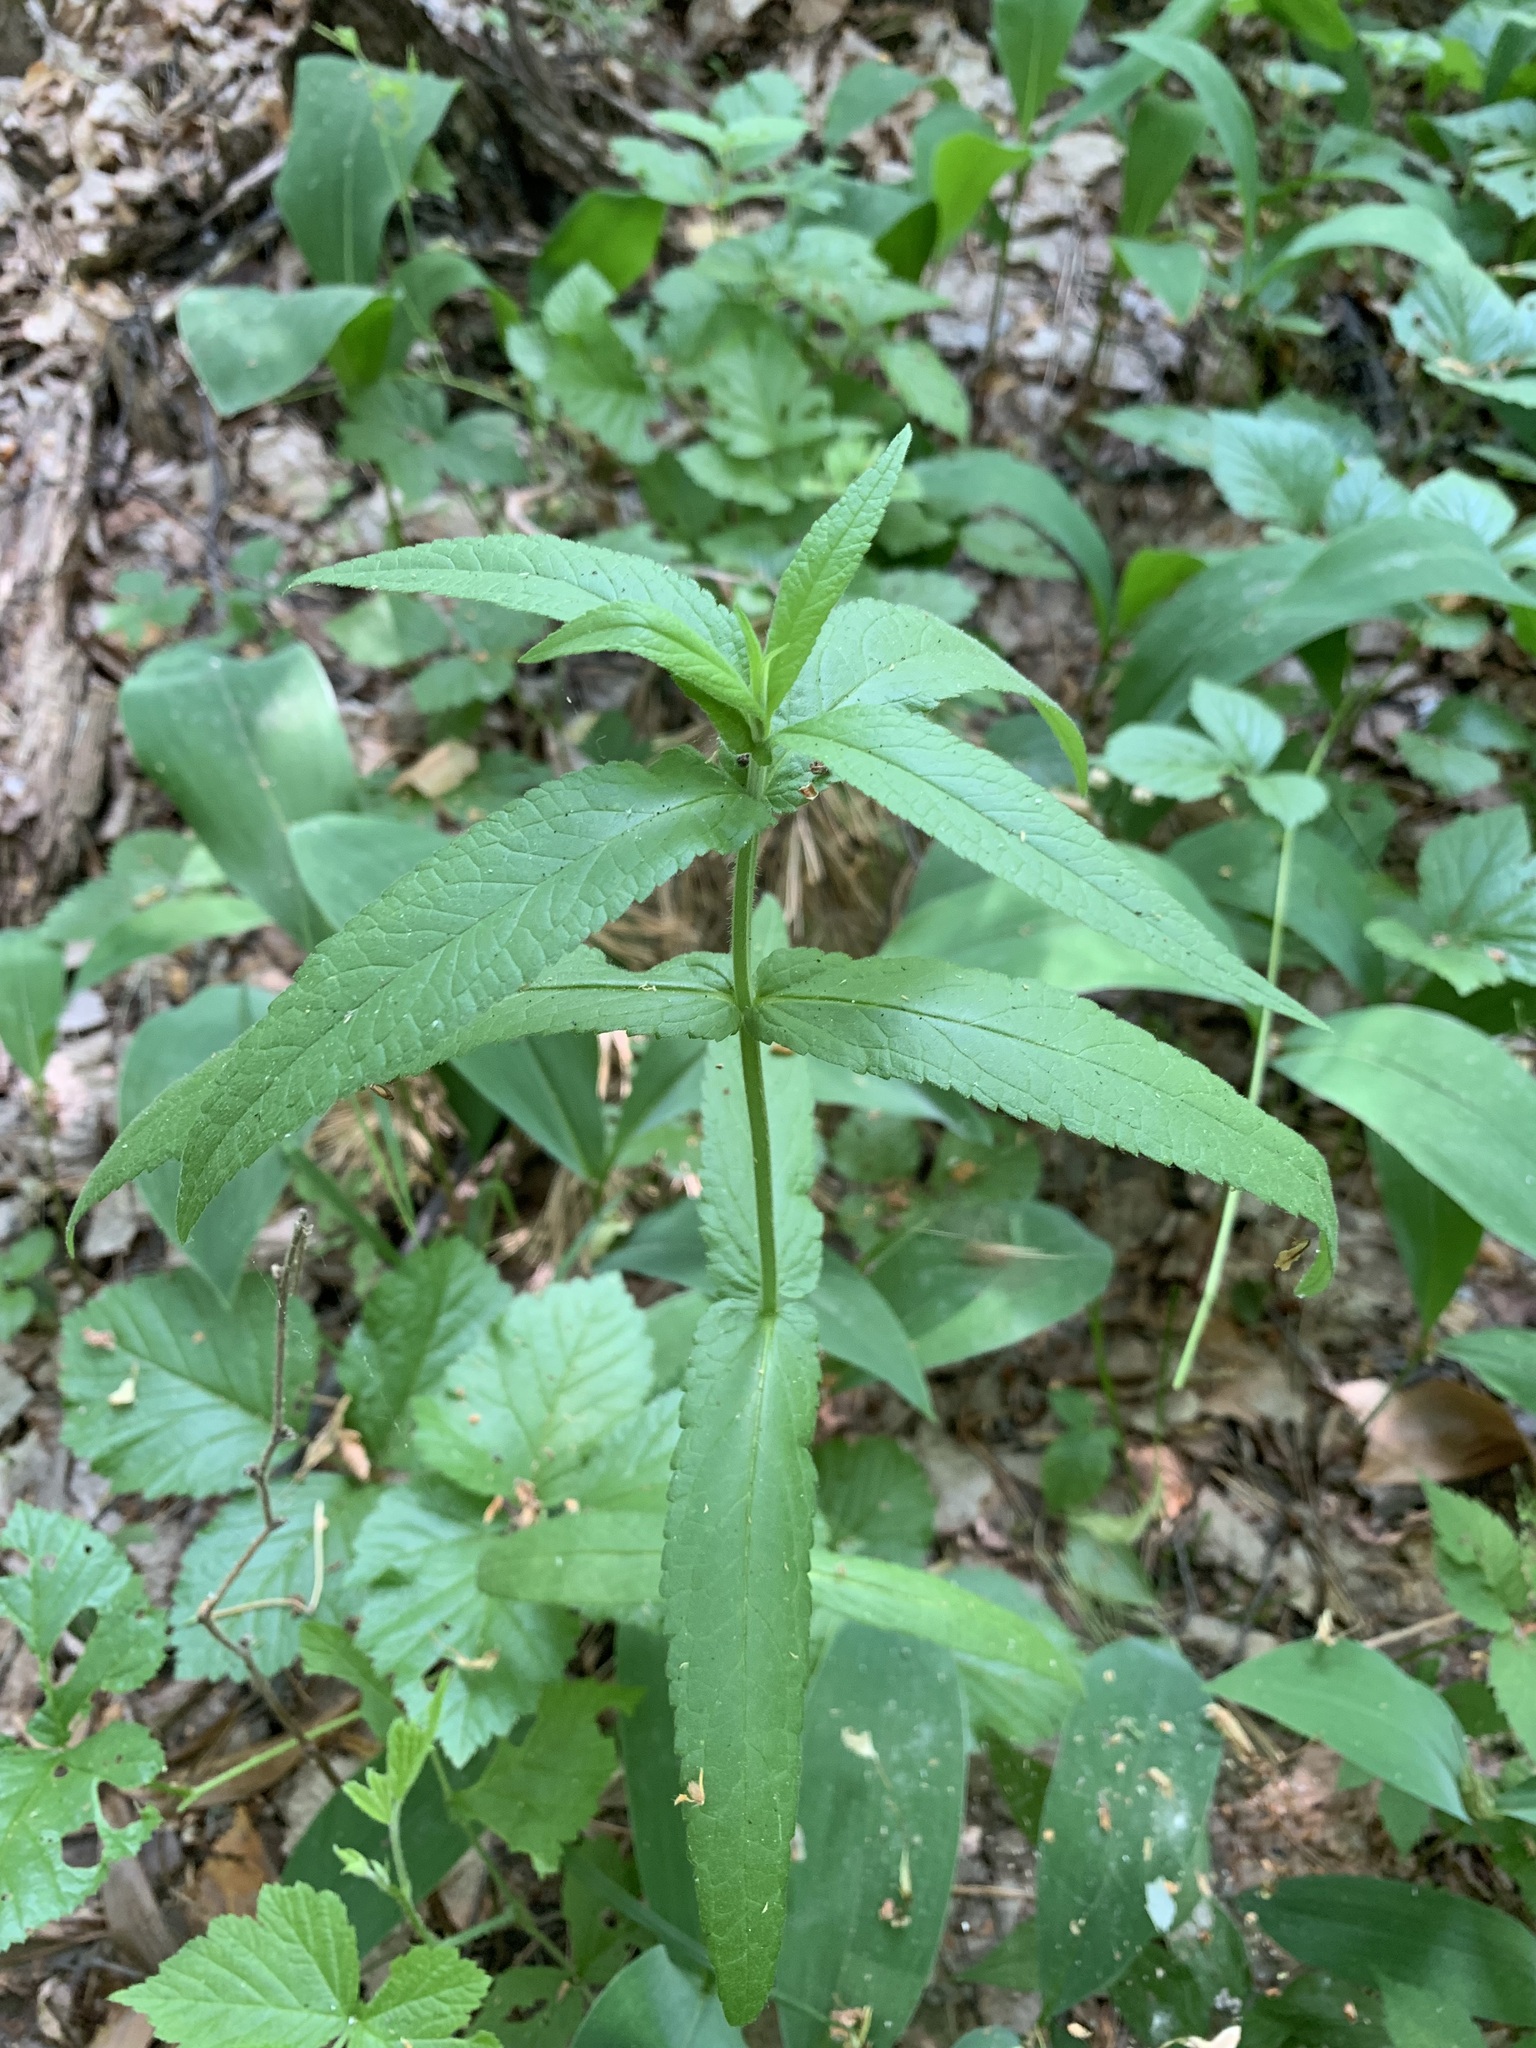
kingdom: Plantae
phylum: Tracheophyta
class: Magnoliopsida
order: Lamiales
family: Lamiaceae
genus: Stachys
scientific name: Stachys palustris
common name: Marsh woundwort
